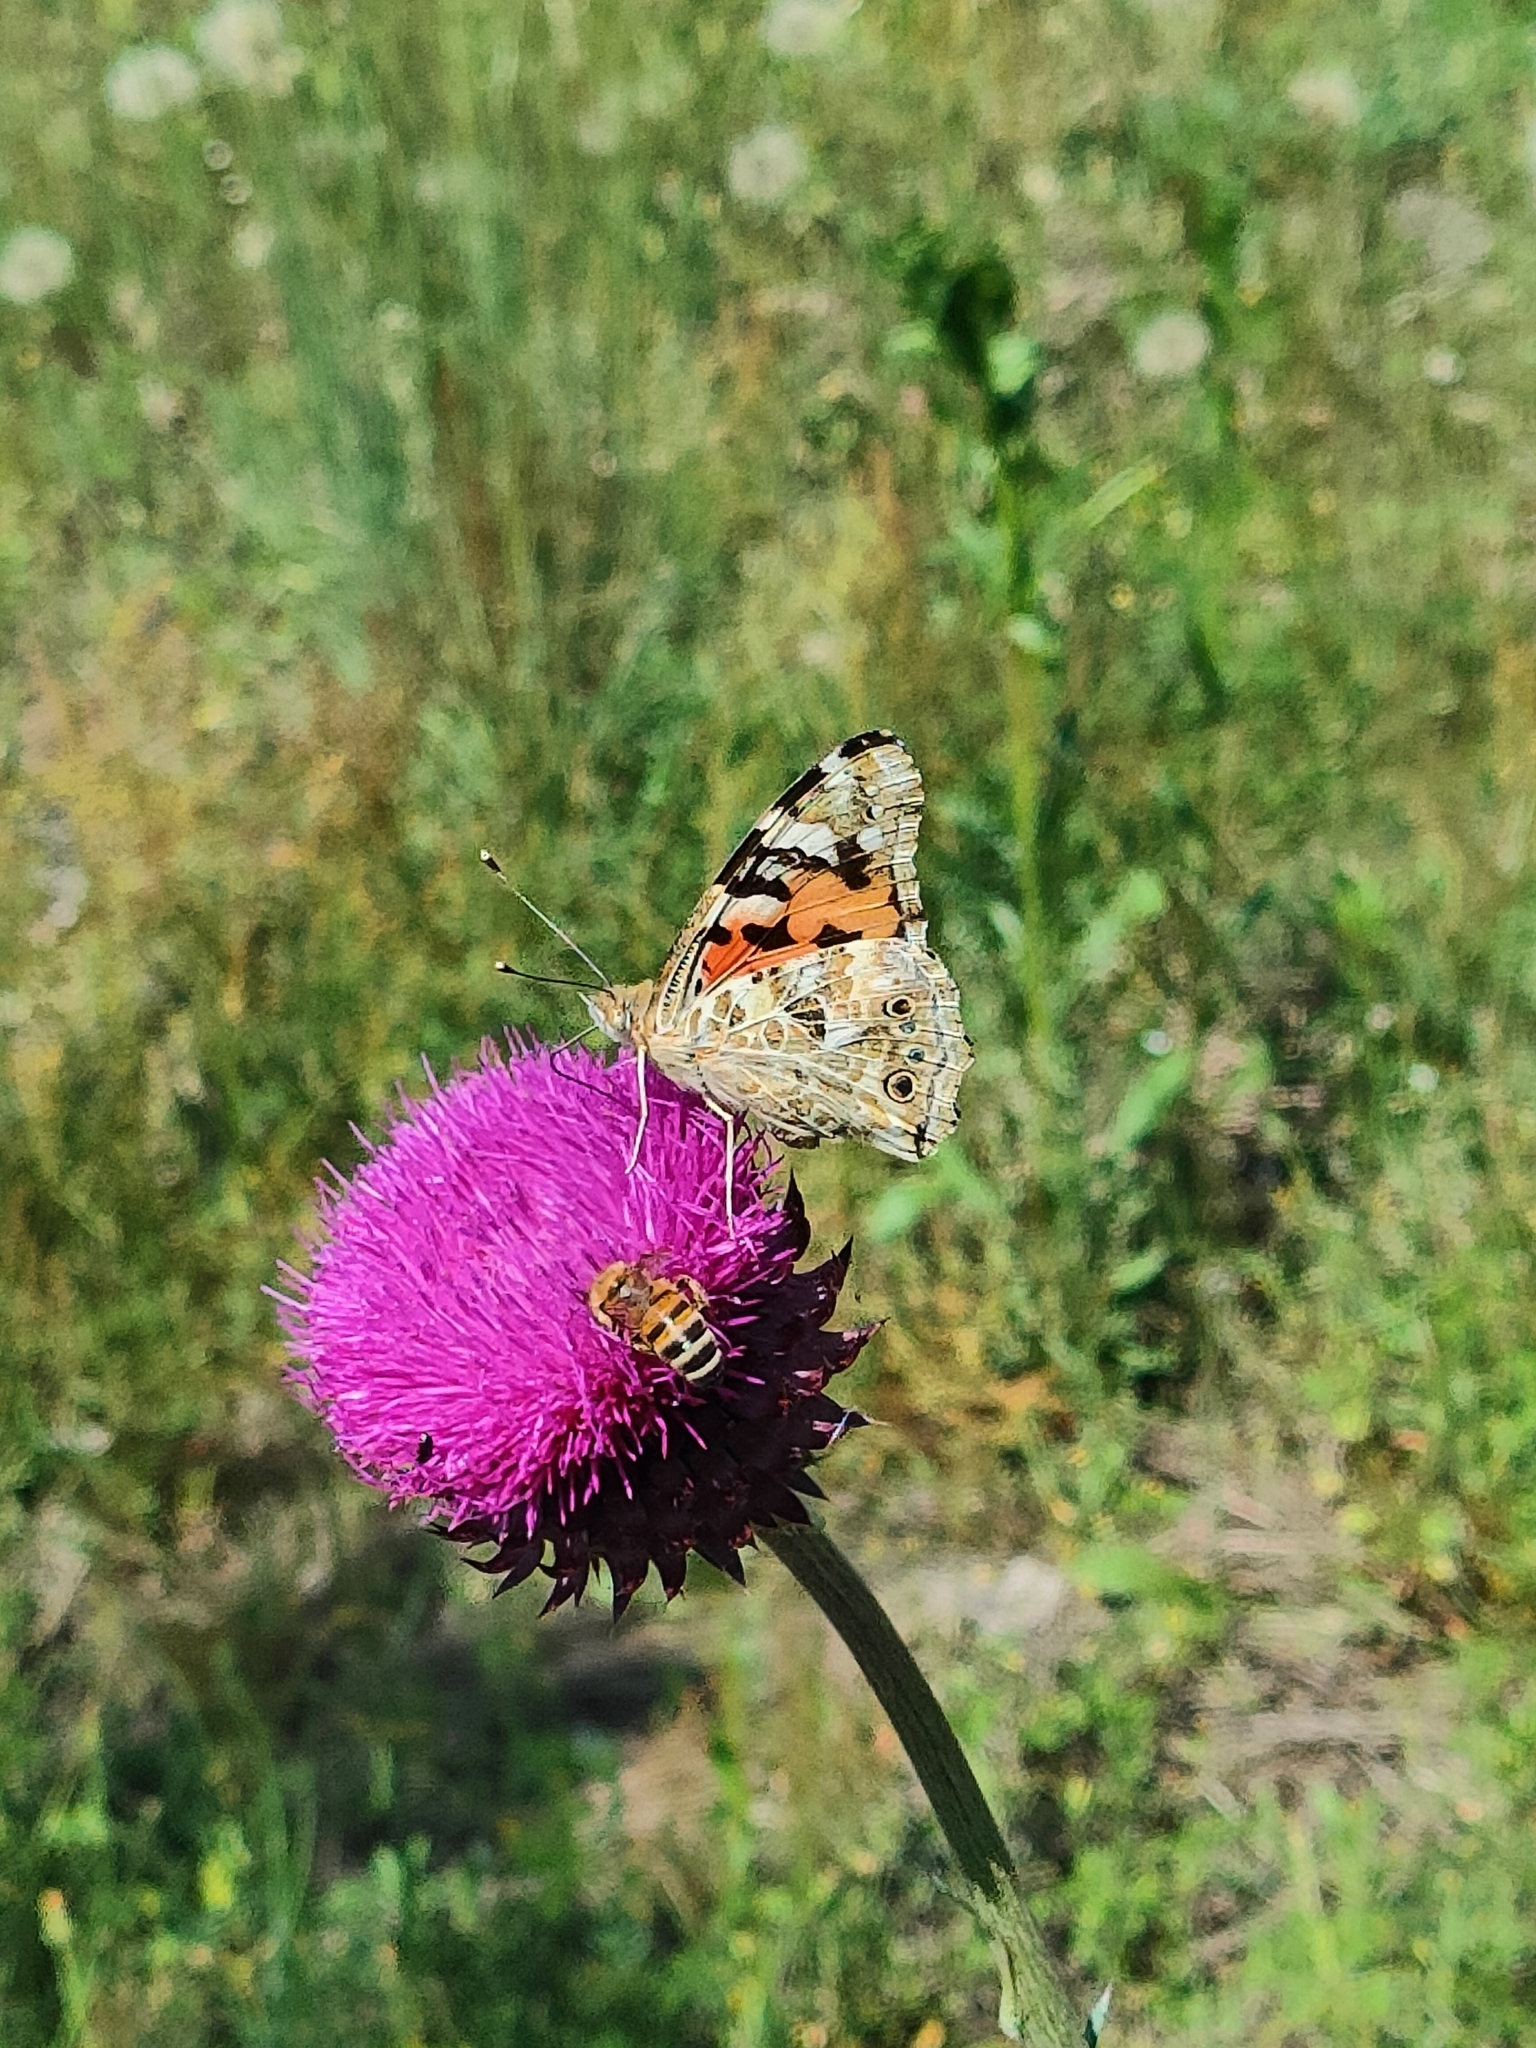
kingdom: Animalia
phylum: Arthropoda
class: Insecta
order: Lepidoptera
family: Nymphalidae
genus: Vanessa
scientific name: Vanessa cardui
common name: Painted lady
